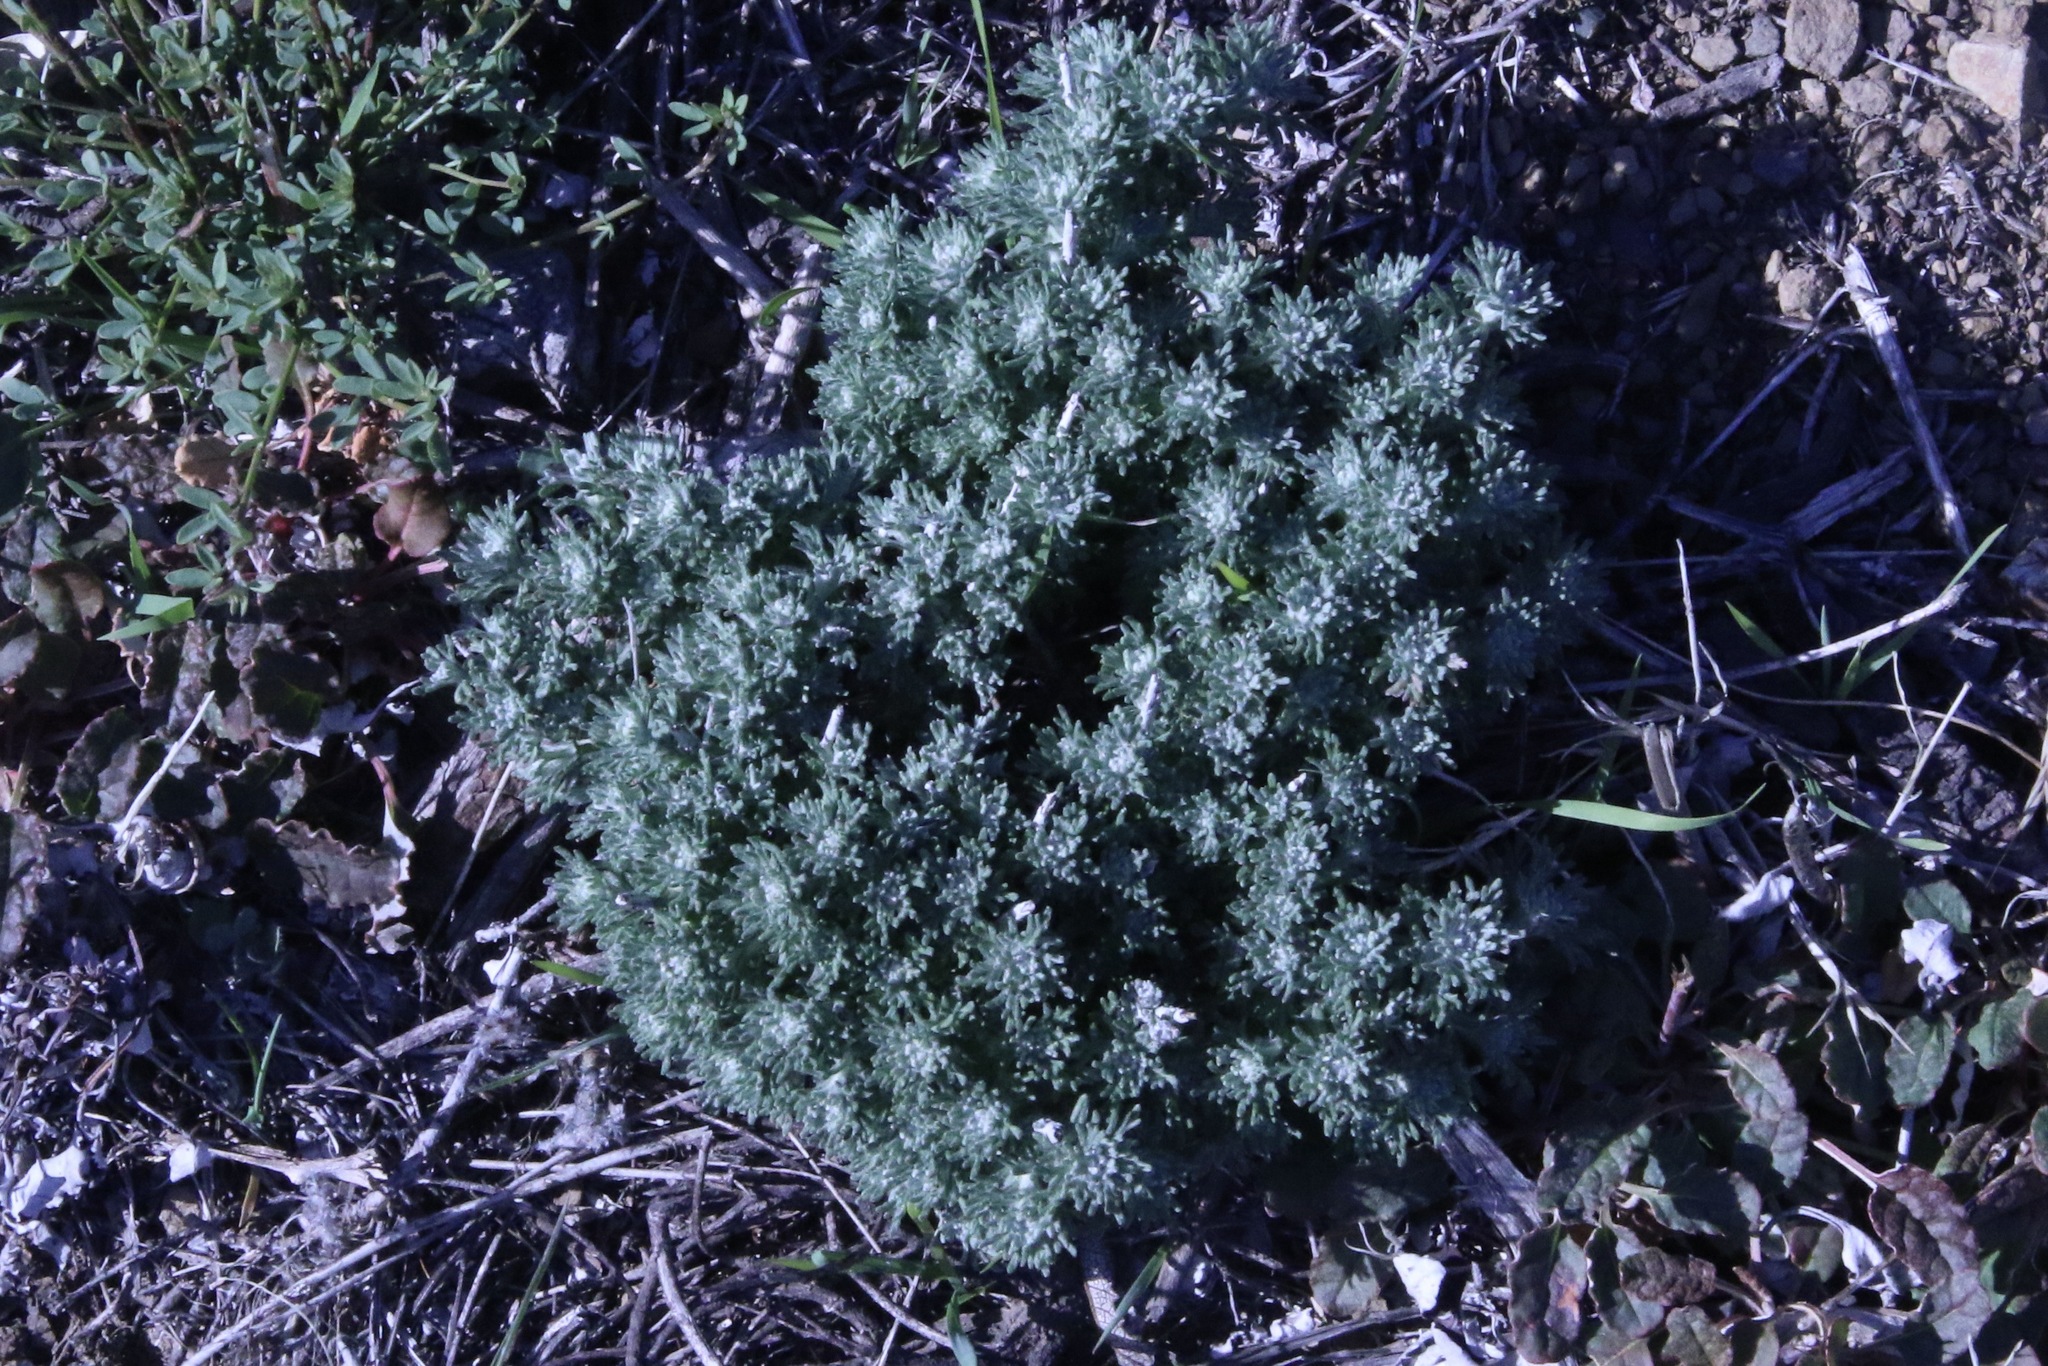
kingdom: Plantae
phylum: Tracheophyta
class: Magnoliopsida
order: Asterales
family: Asteraceae
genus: Eriophyllum
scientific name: Eriophyllum confertiflorum
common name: Golden-yarrow
